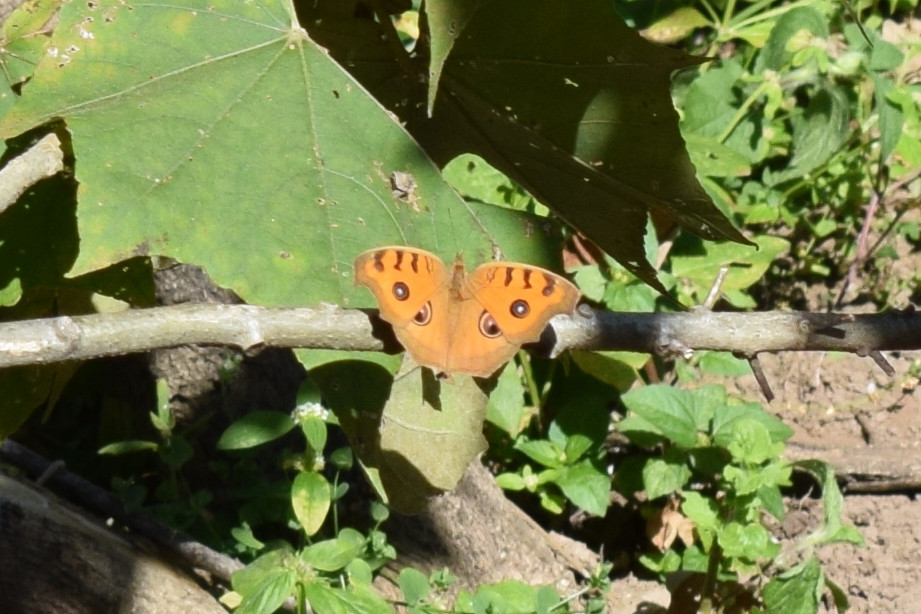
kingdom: Animalia
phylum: Arthropoda
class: Insecta
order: Lepidoptera
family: Nymphalidae
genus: Junonia
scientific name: Junonia almana
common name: Peacock pansy
